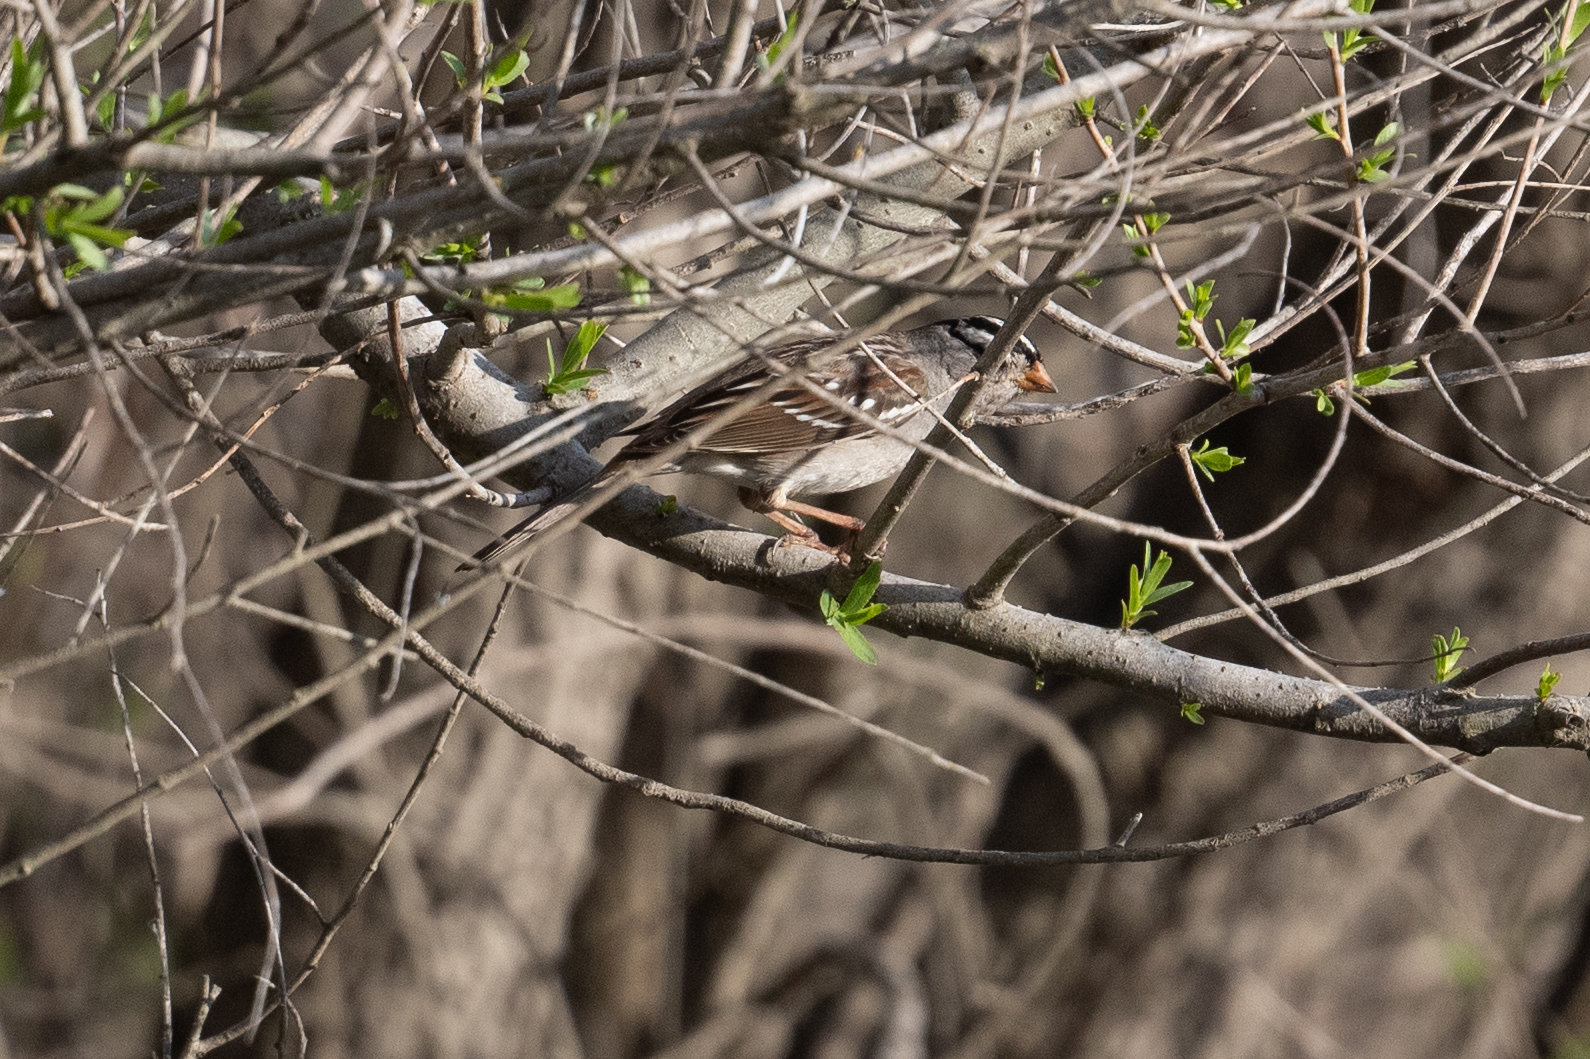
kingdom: Animalia
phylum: Chordata
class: Aves
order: Passeriformes
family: Passerellidae
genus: Zonotrichia
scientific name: Zonotrichia leucophrys
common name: White-crowned sparrow
